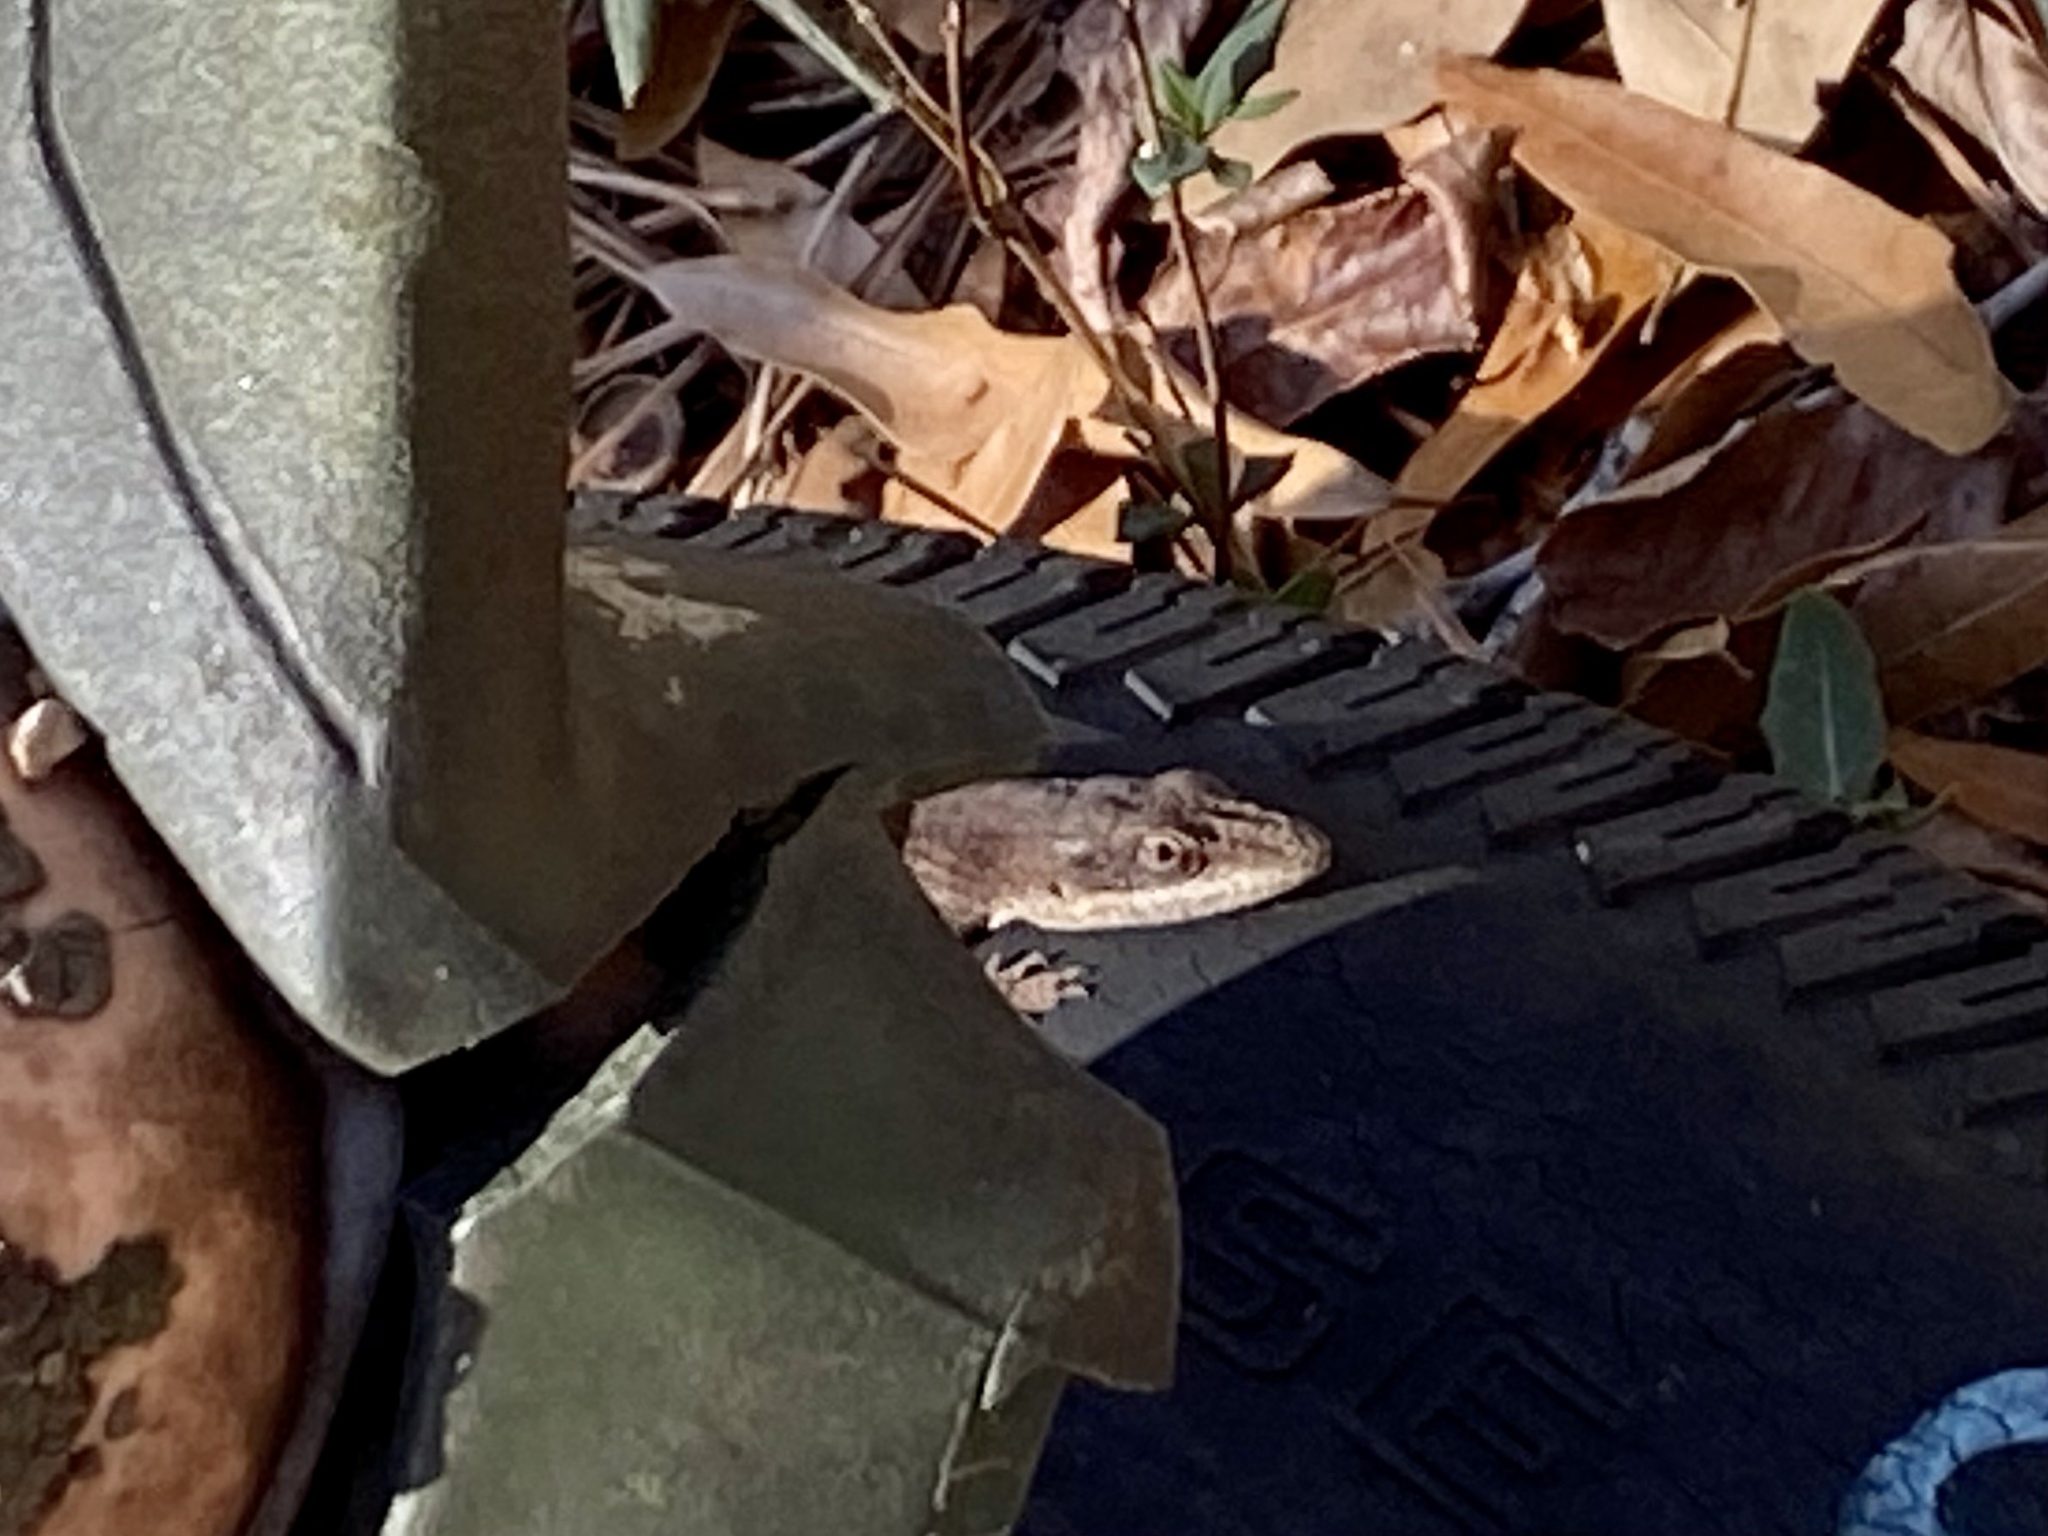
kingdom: Animalia
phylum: Chordata
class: Squamata
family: Dactyloidae
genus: Anolis
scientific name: Anolis carolinensis
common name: Green anole
